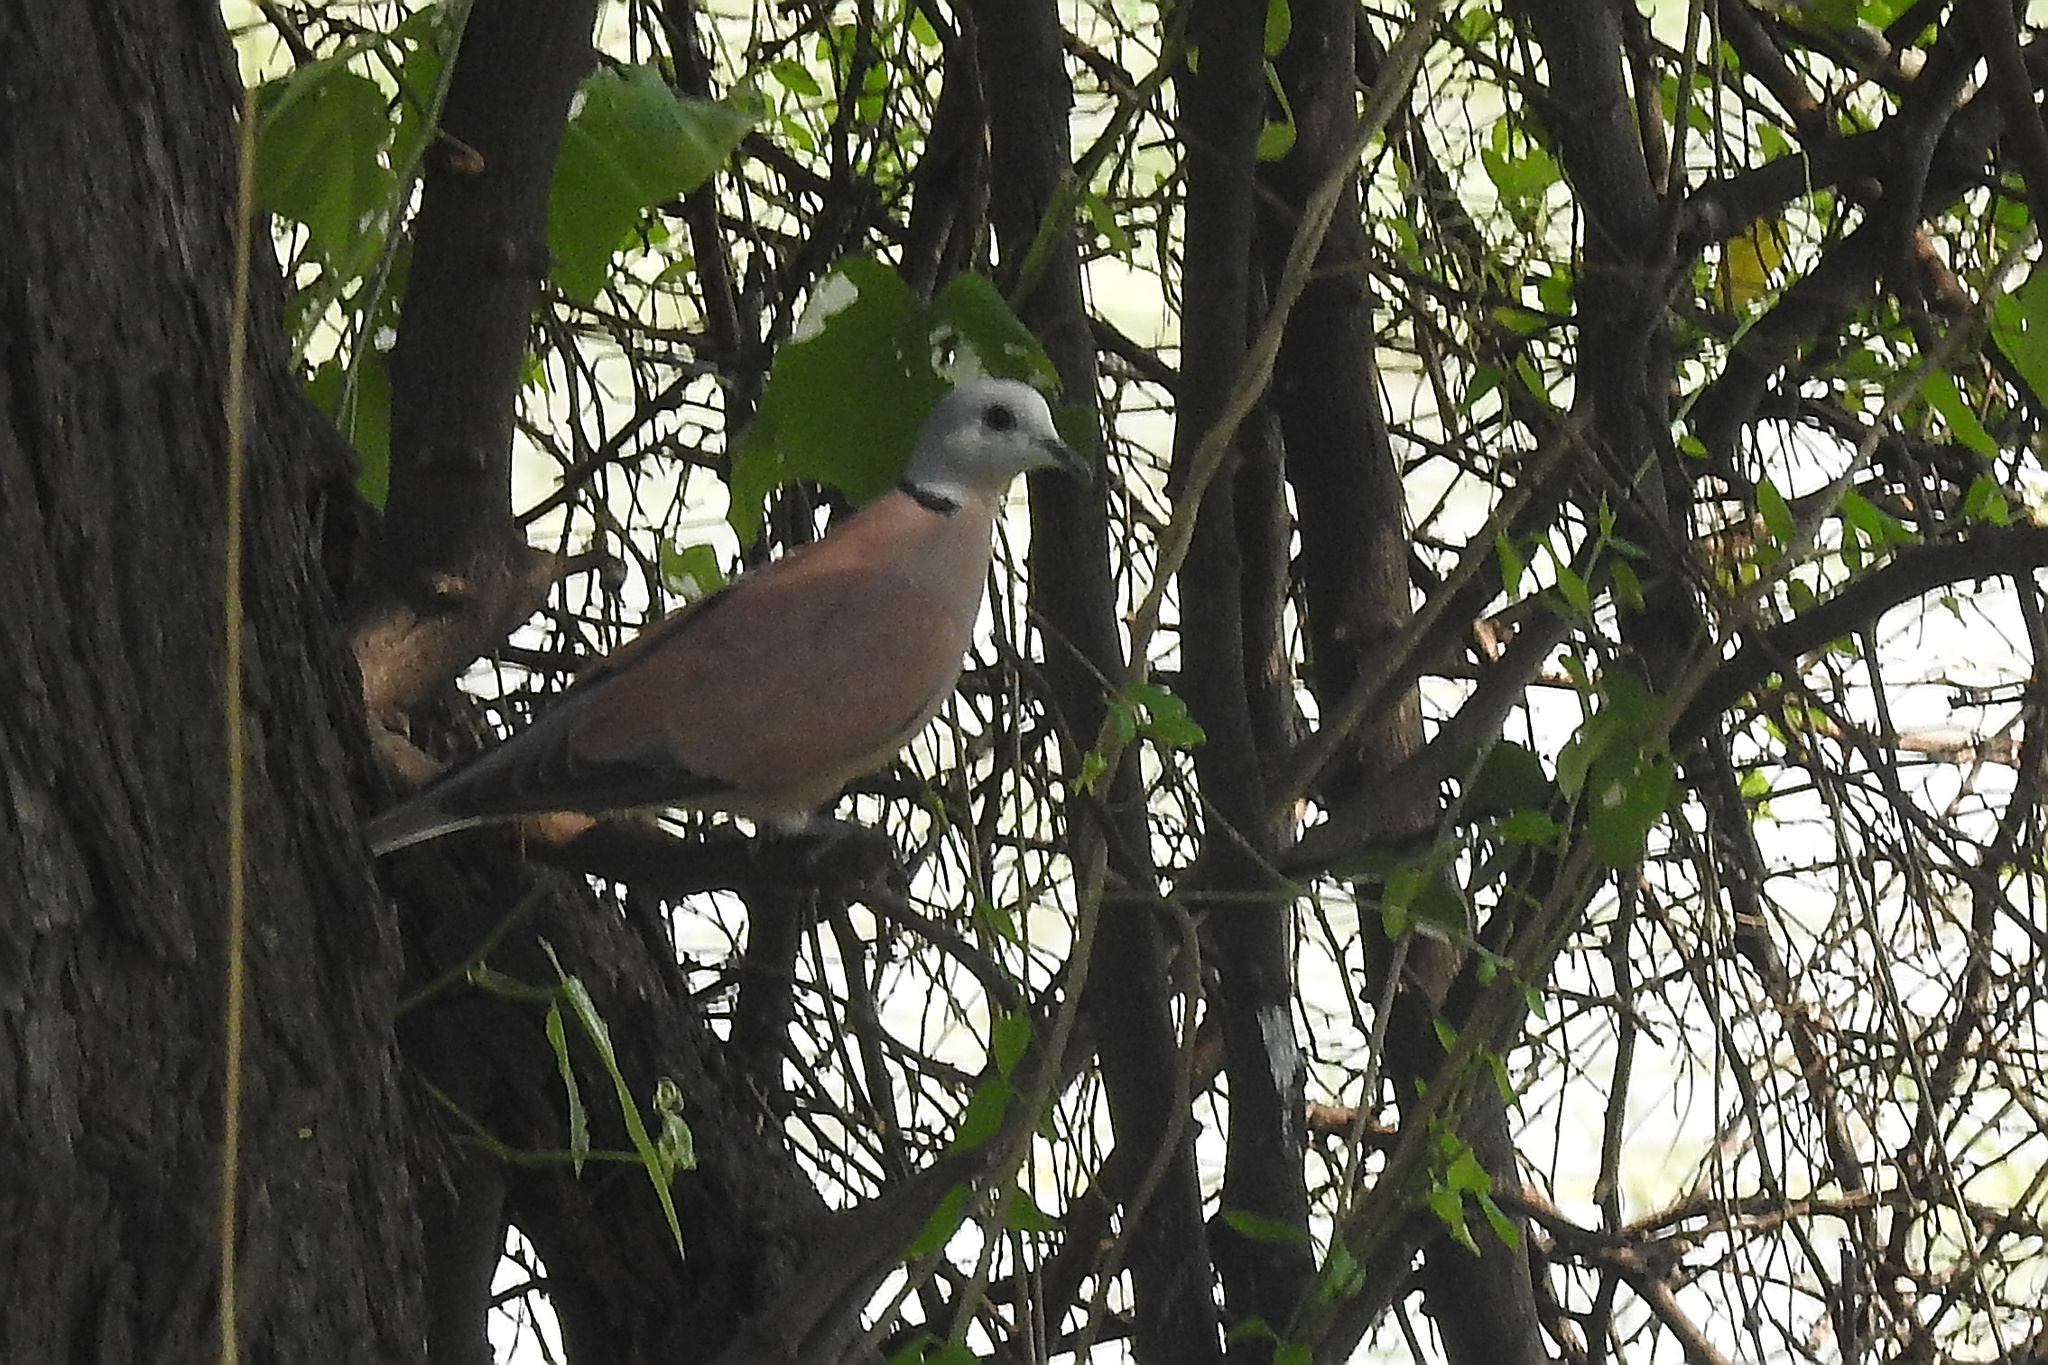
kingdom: Animalia
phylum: Chordata
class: Aves
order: Columbiformes
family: Columbidae
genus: Streptopelia
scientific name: Streptopelia tranquebarica
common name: Red turtle dove
